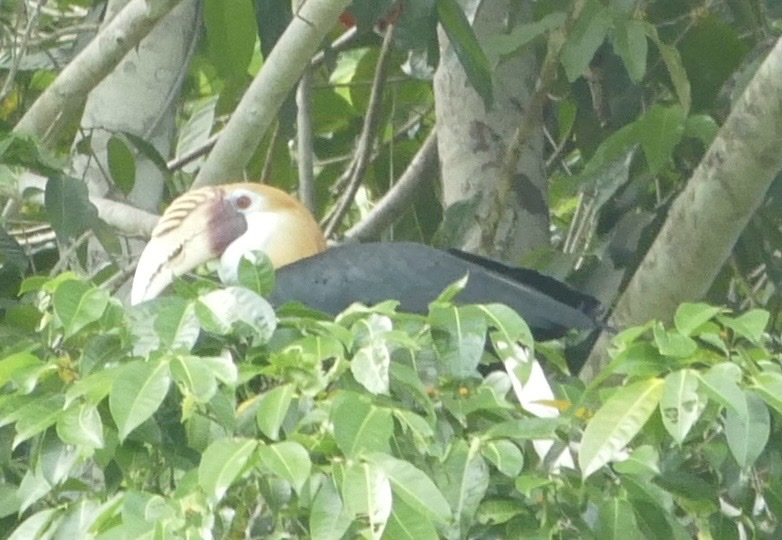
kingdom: Animalia
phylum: Chordata
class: Aves
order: Bucerotiformes
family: Bucerotidae
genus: Rhyticeros
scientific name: Rhyticeros plicatus
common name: Blyth's hornbill
